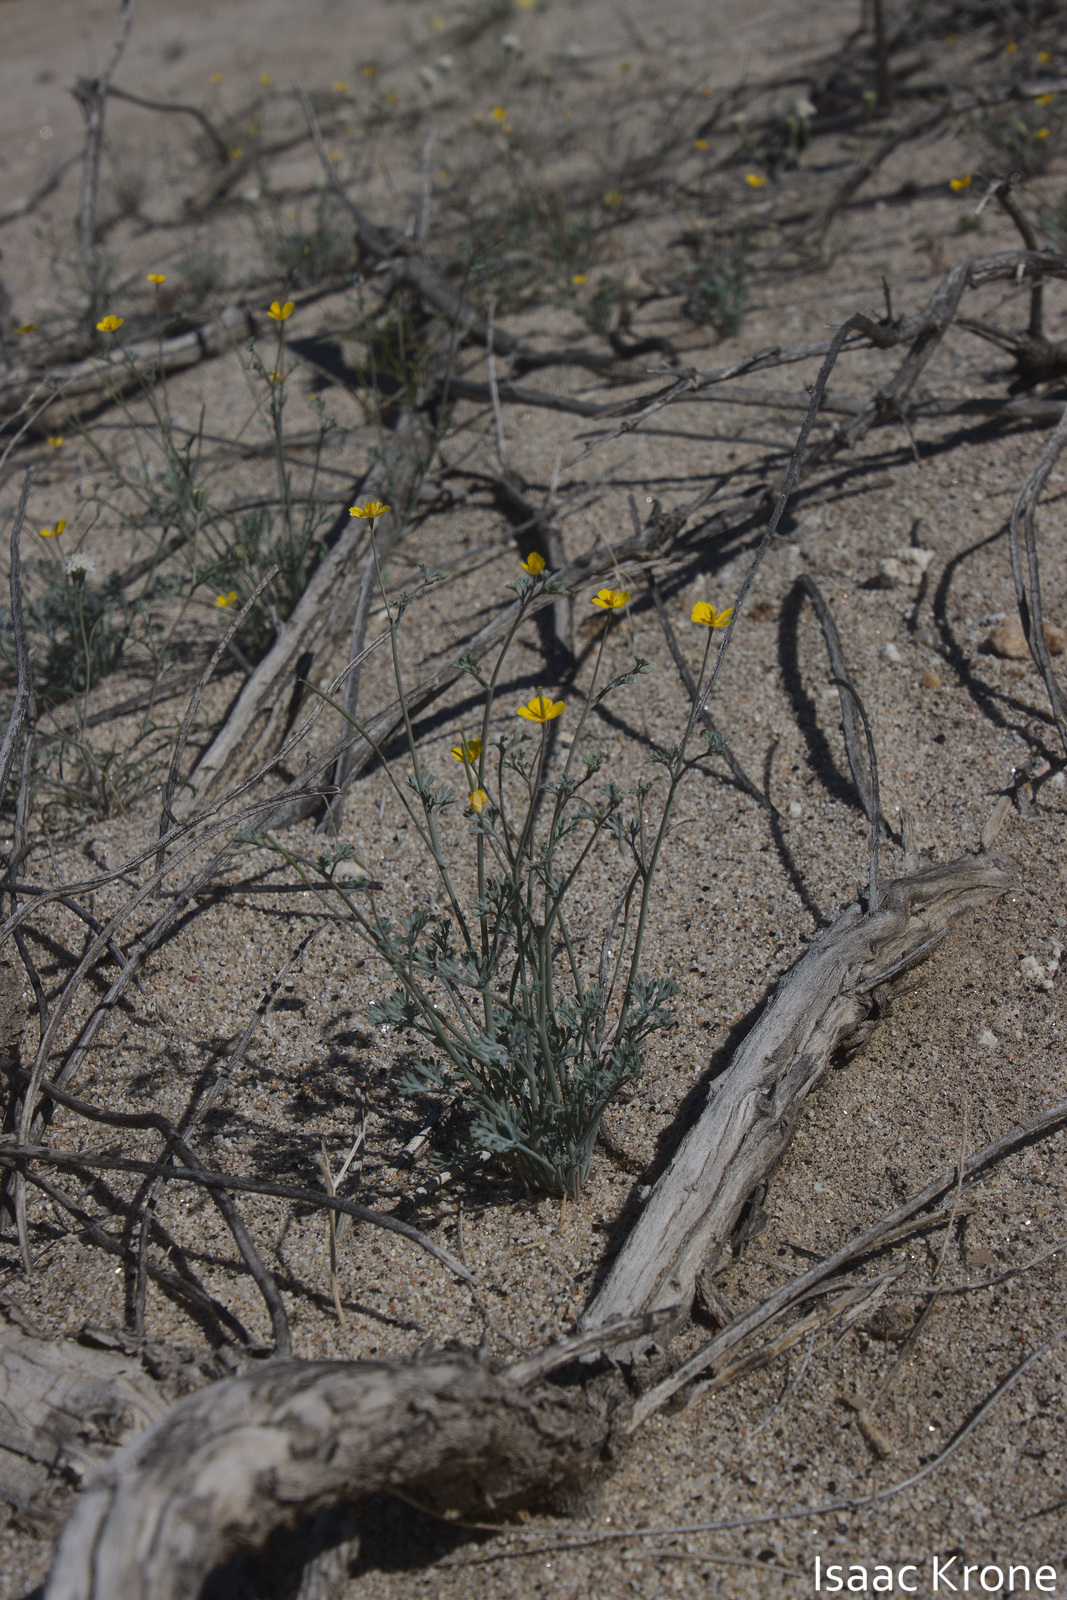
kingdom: Plantae
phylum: Tracheophyta
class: Magnoliopsida
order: Ranunculales
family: Papaveraceae
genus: Eschscholzia
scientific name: Eschscholzia minutiflora
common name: Small-flower california-poppy
